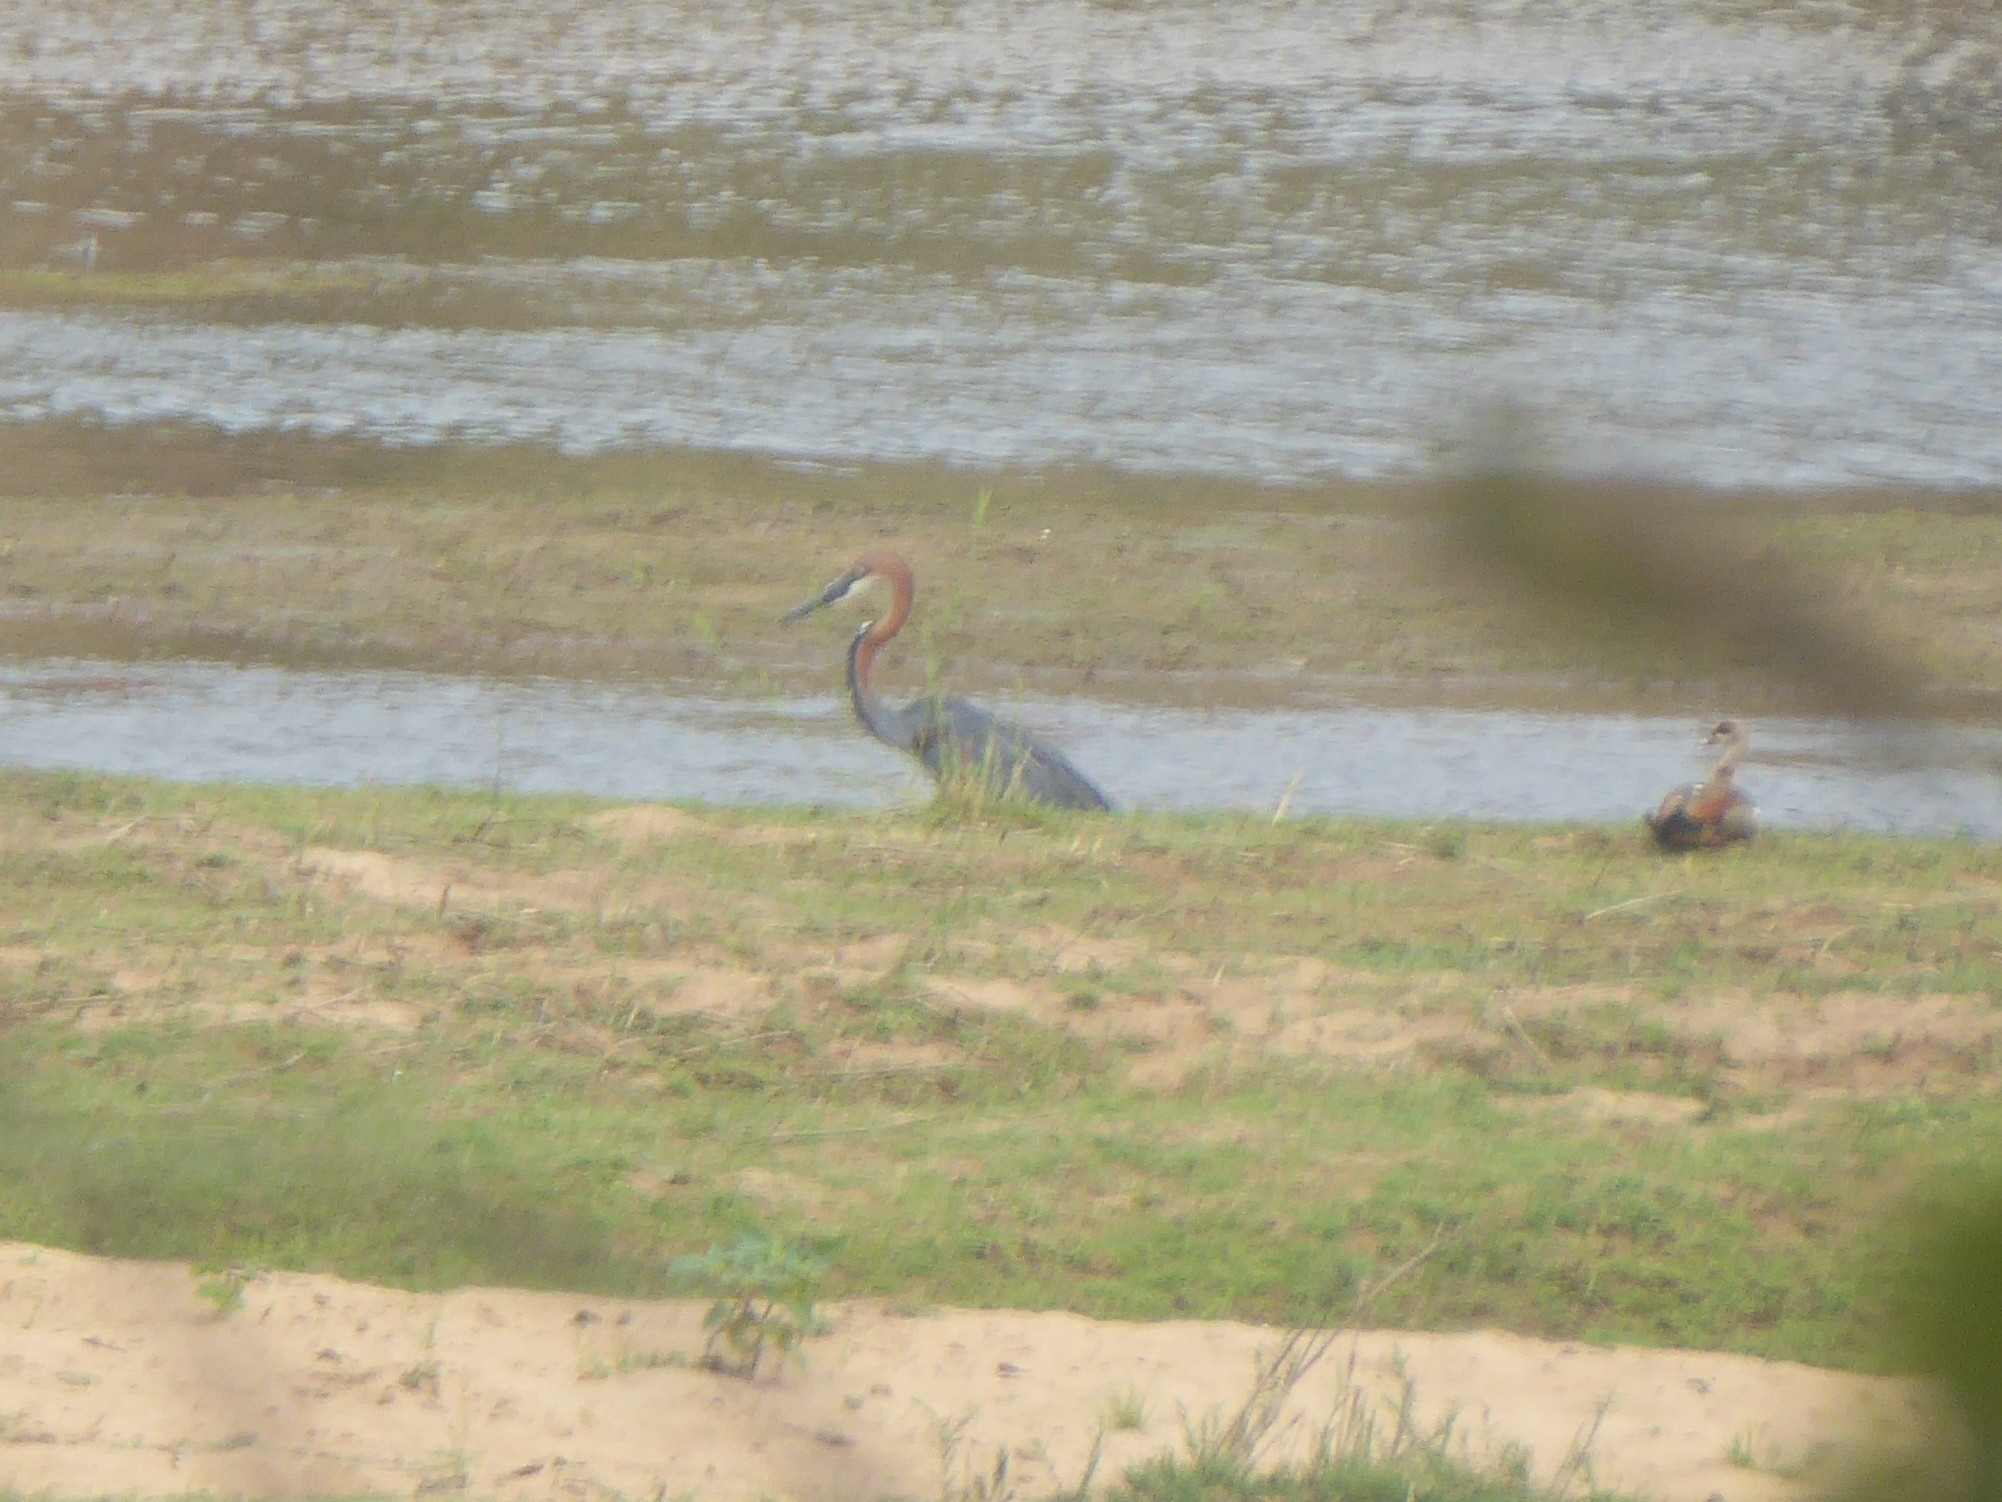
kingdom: Animalia
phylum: Chordata
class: Aves
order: Pelecaniformes
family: Ardeidae
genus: Ardea
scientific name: Ardea goliath
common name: Goliath heron
